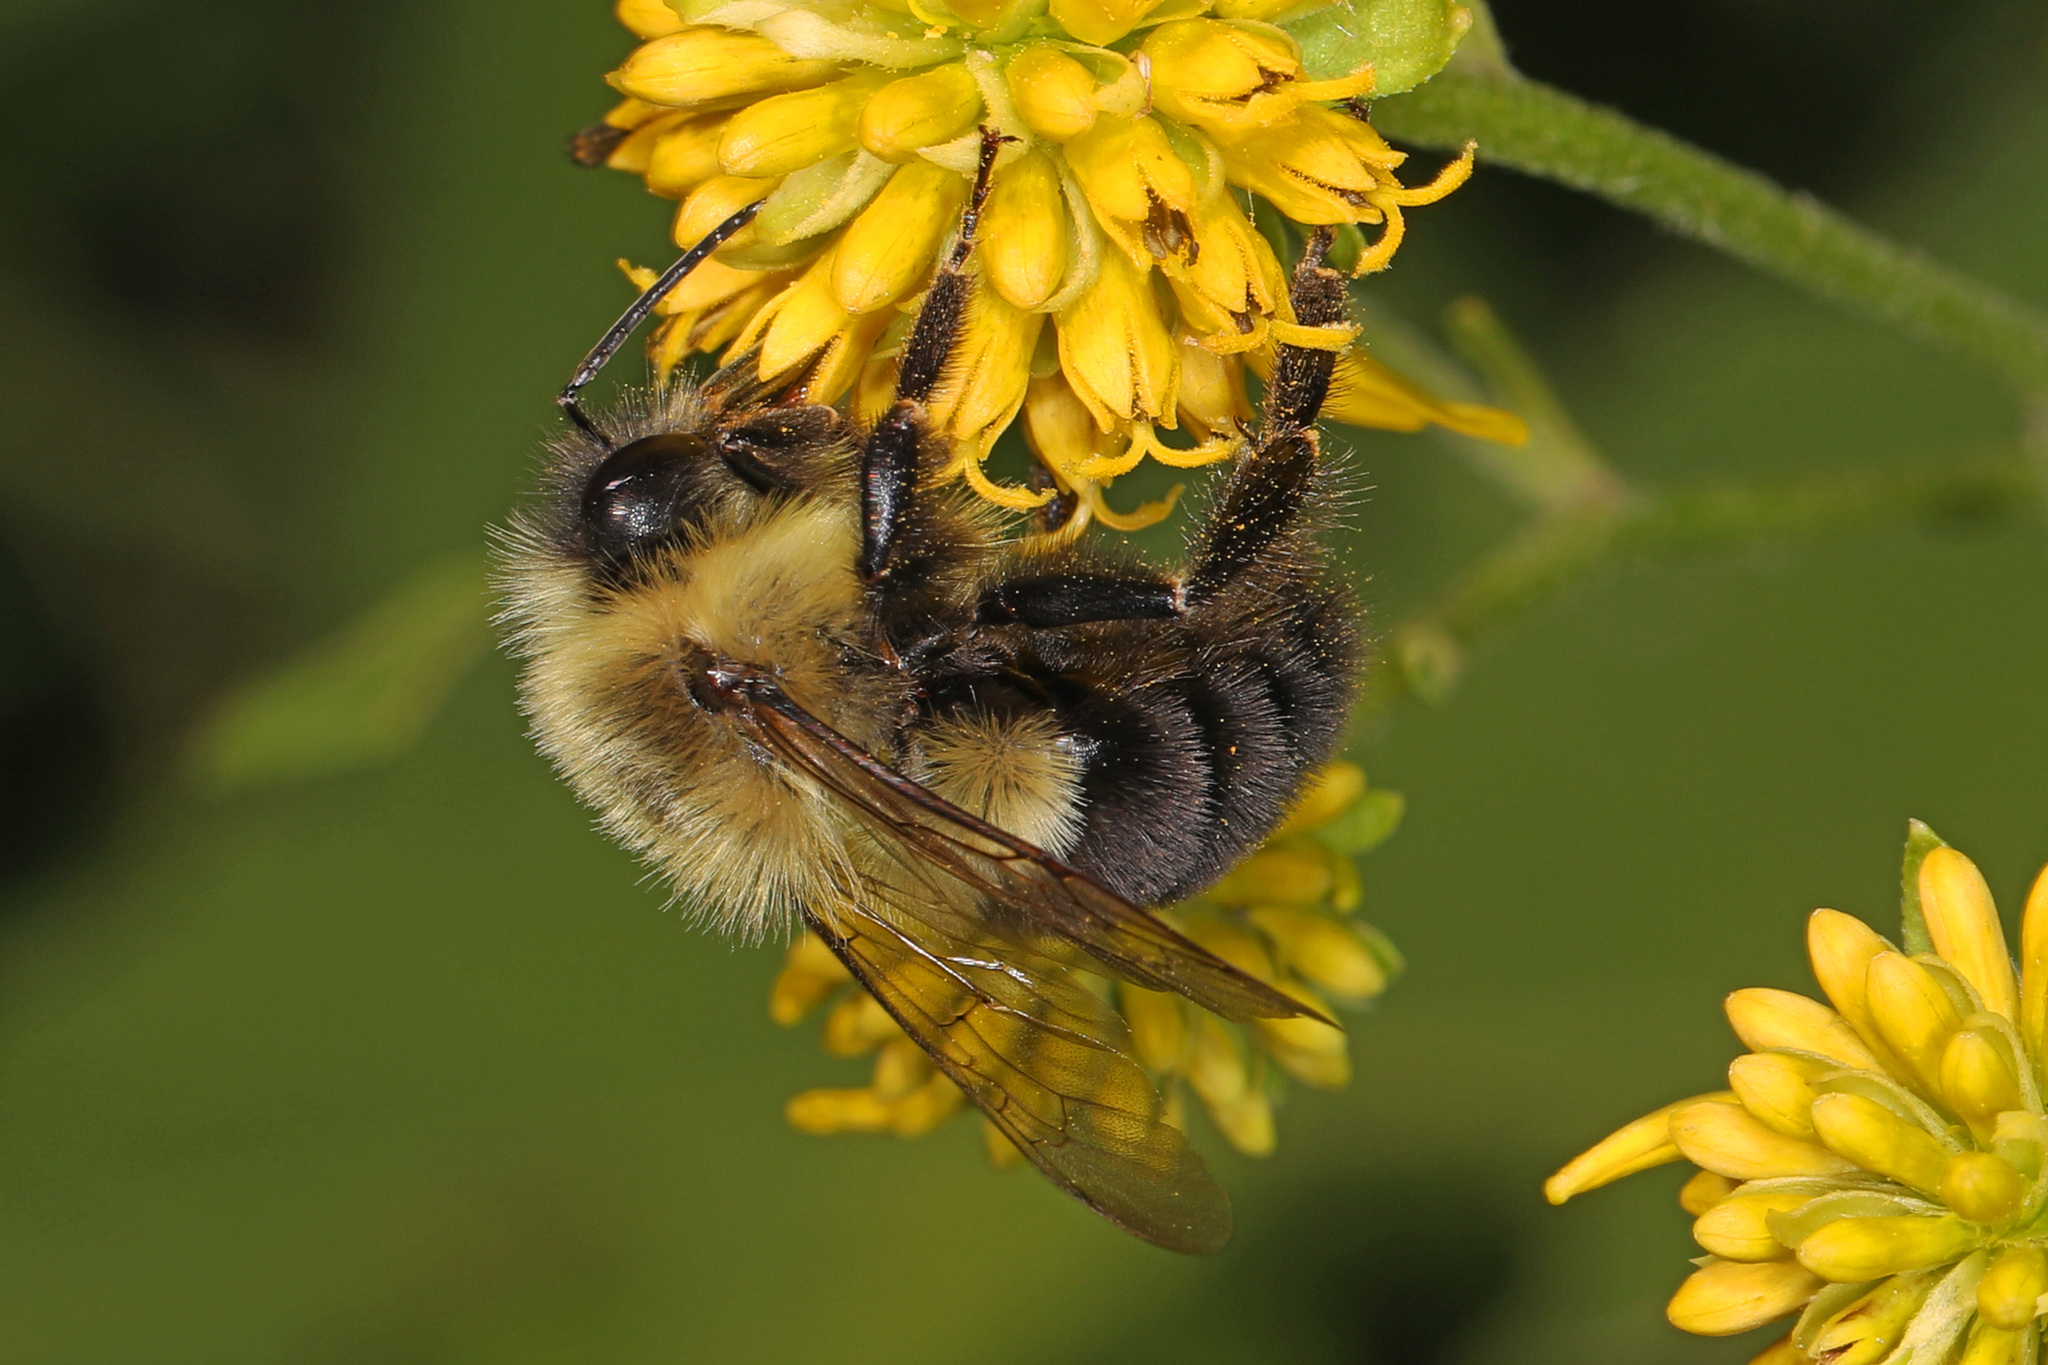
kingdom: Animalia
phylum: Arthropoda
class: Insecta
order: Hymenoptera
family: Apidae
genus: Bombus
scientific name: Bombus impatiens
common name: Common eastern bumble bee
